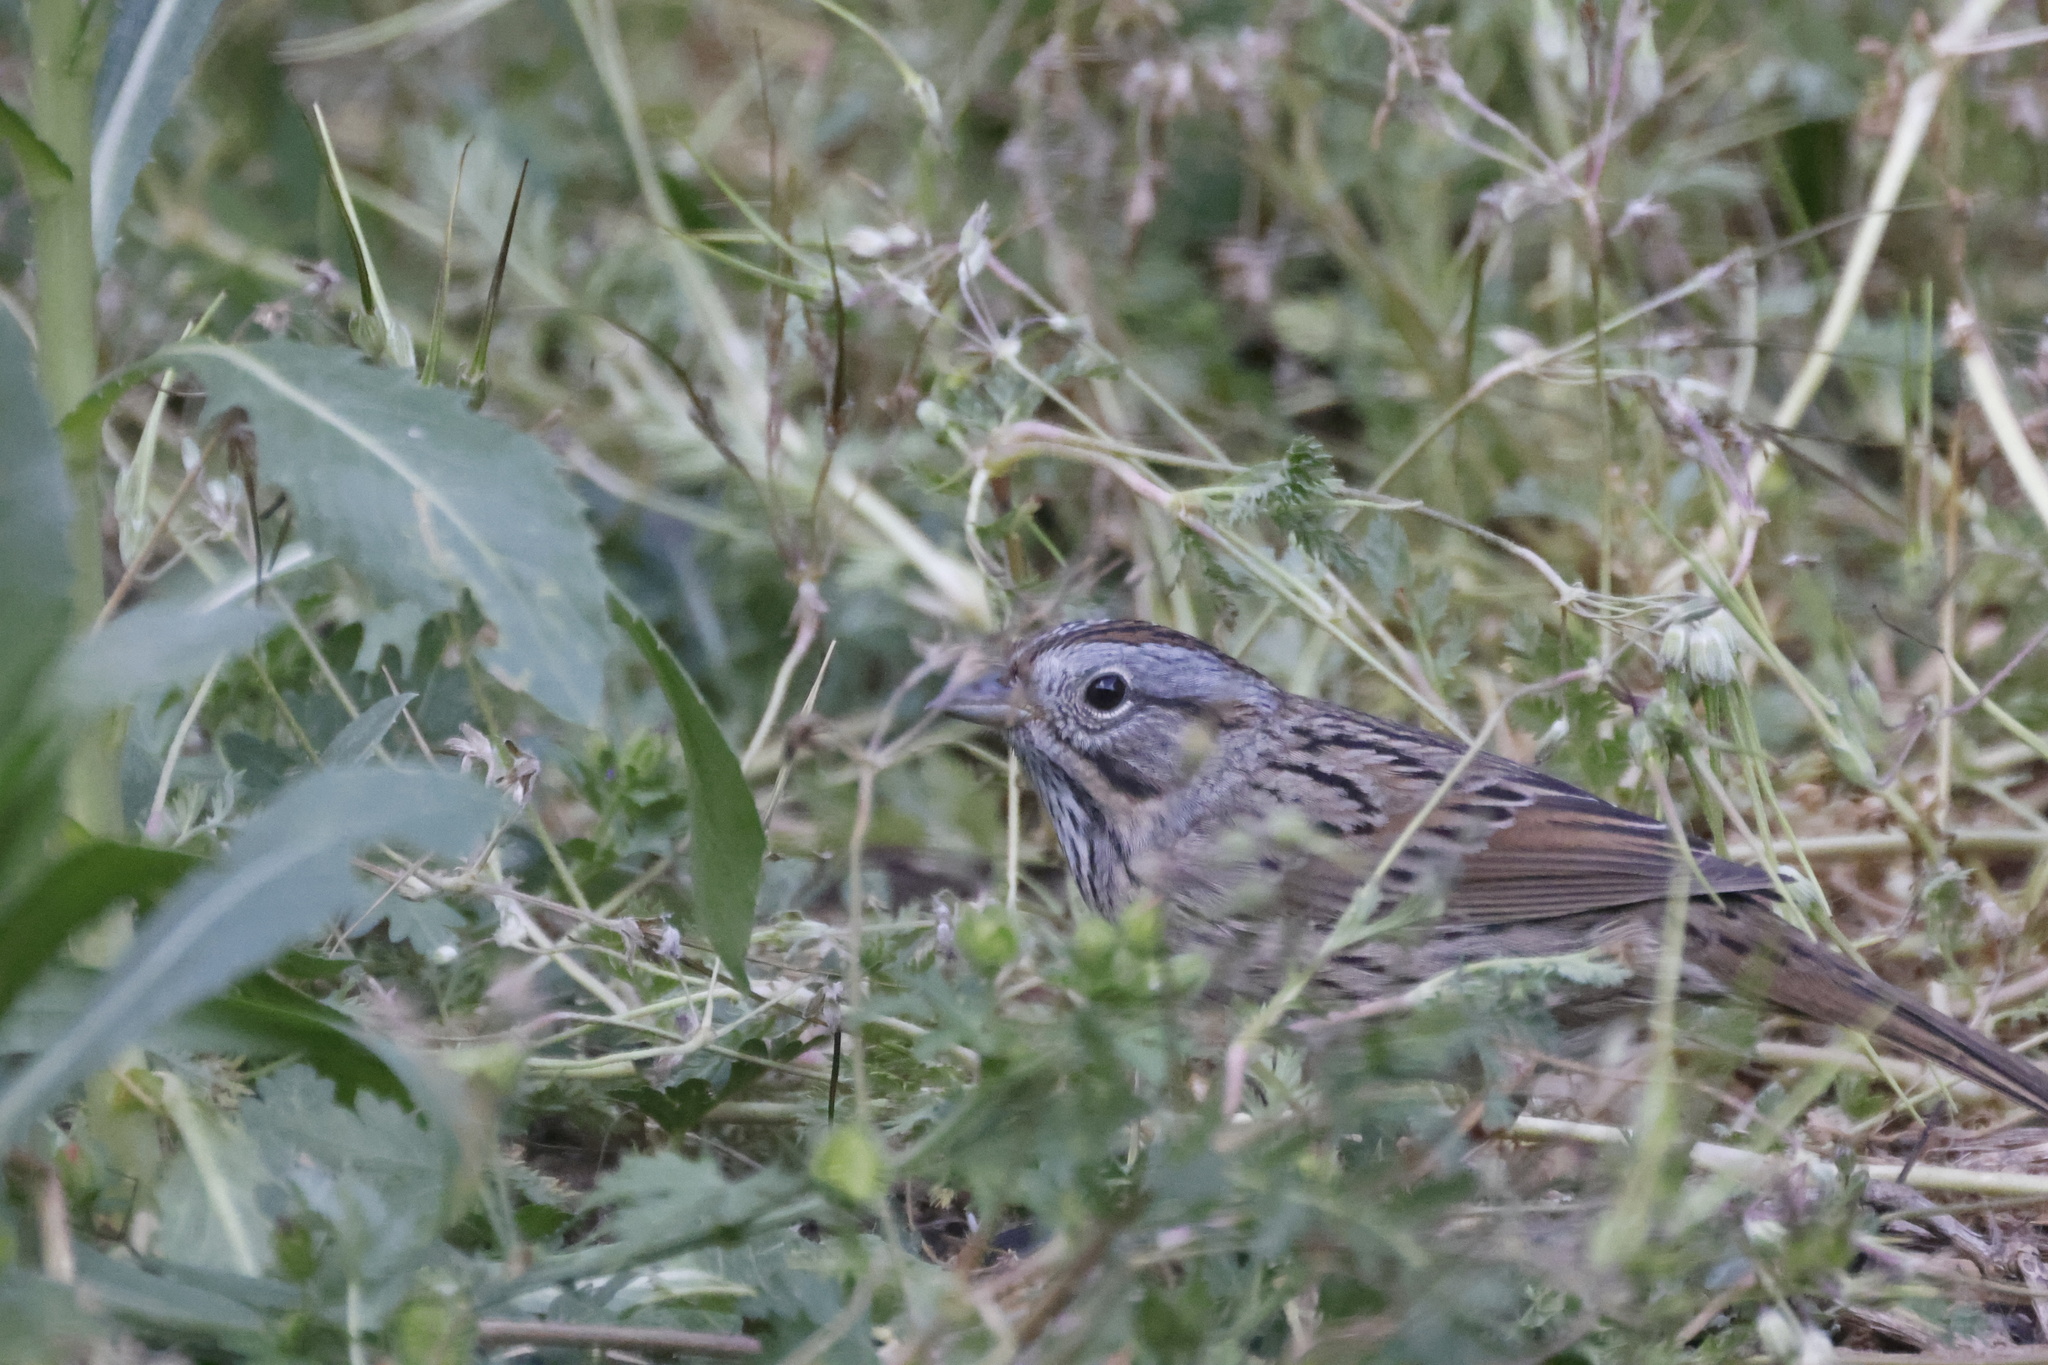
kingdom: Animalia
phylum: Chordata
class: Aves
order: Passeriformes
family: Passerellidae
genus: Melospiza
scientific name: Melospiza lincolnii
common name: Lincoln's sparrow
